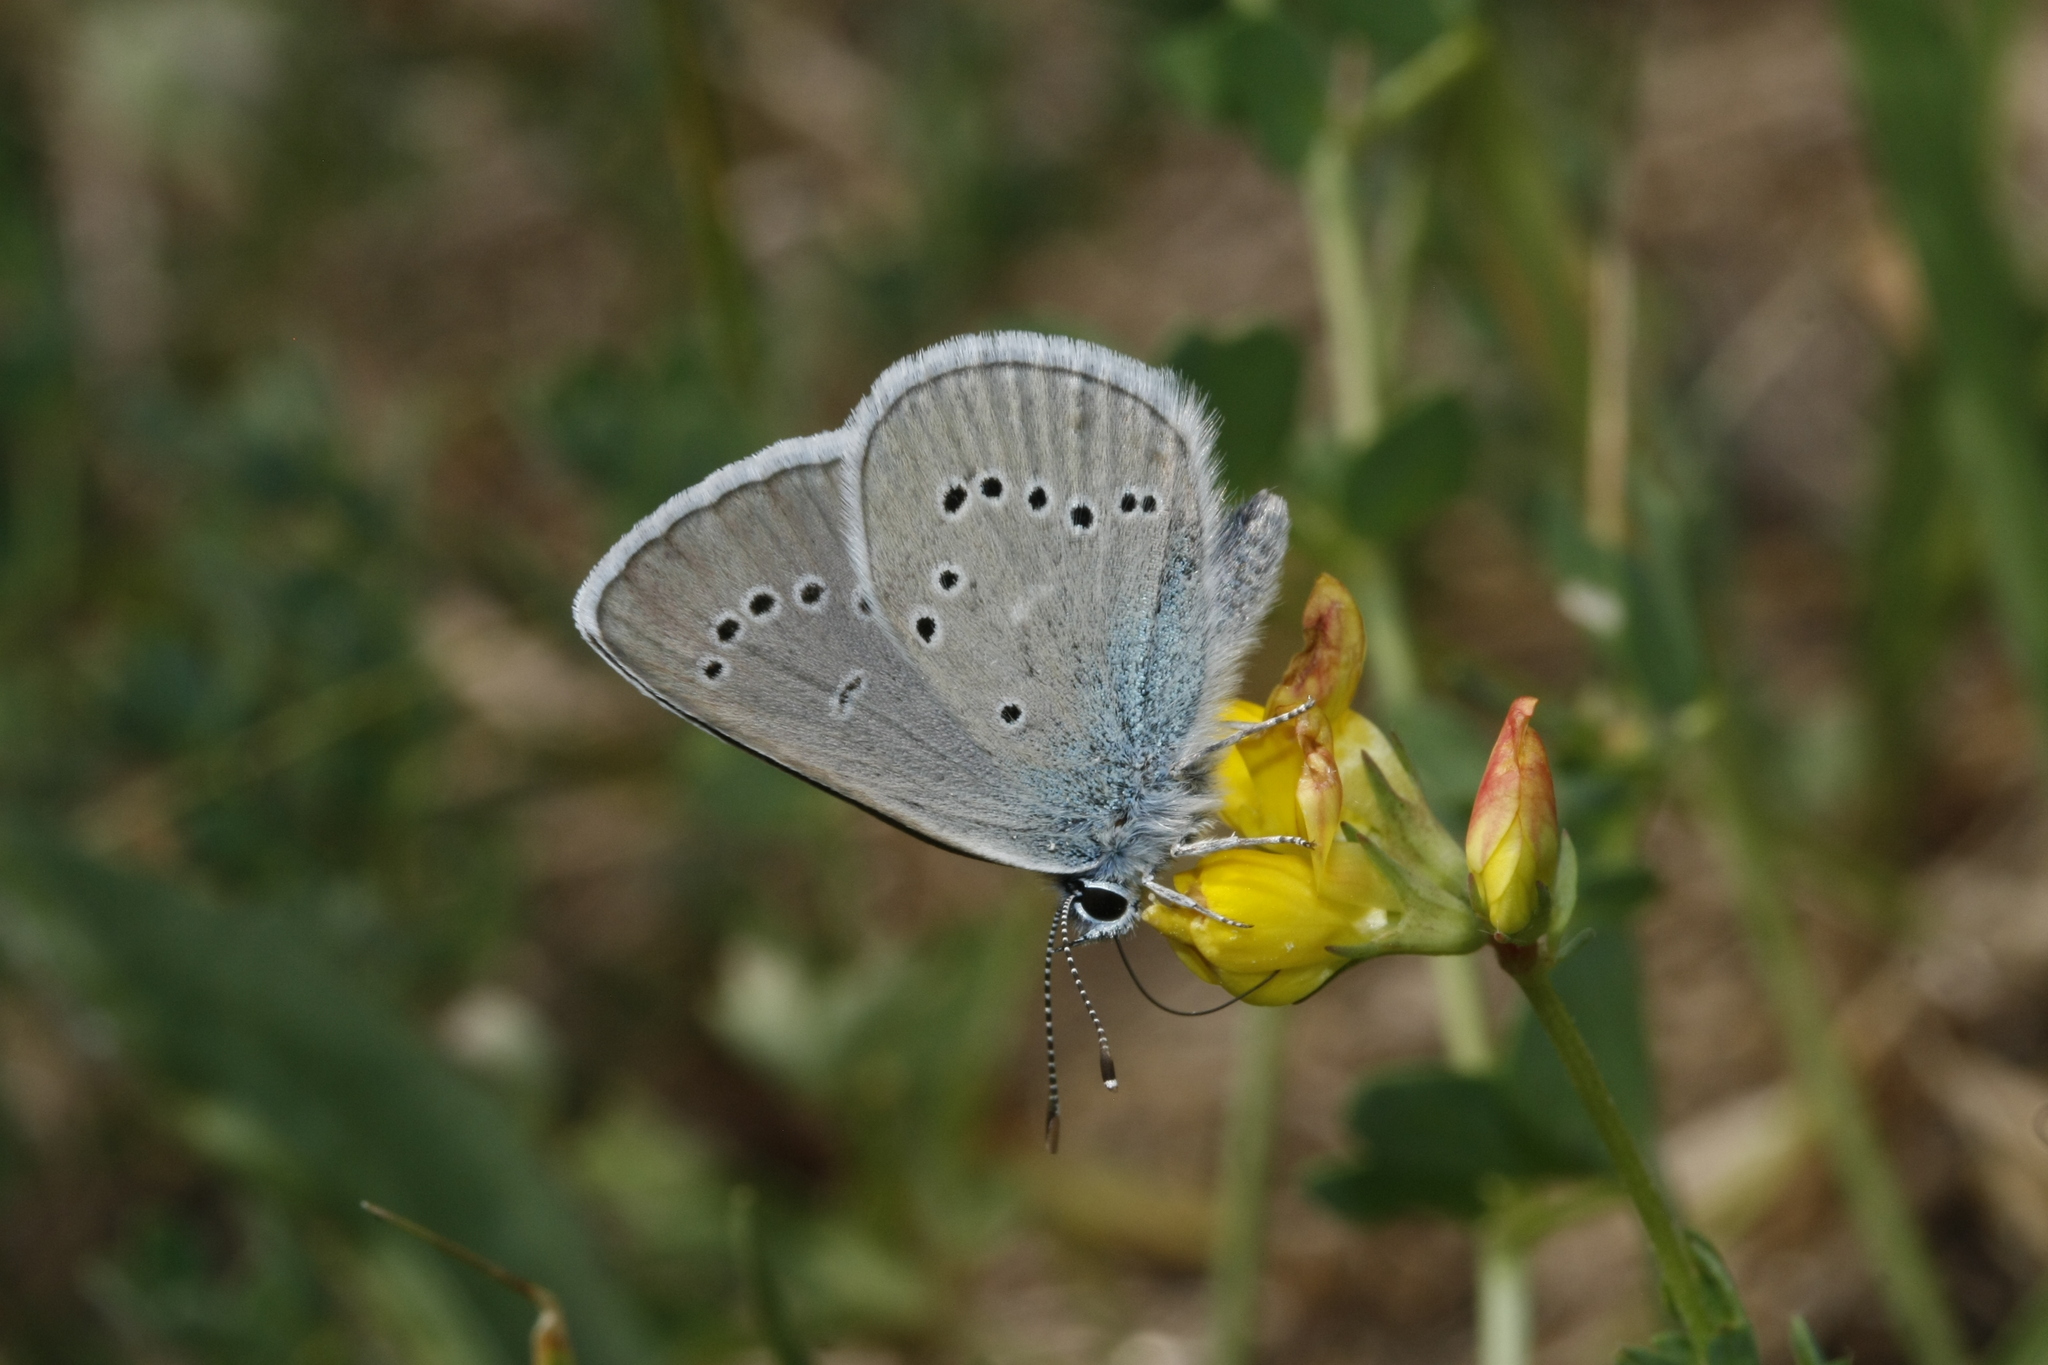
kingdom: Animalia
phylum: Arthropoda
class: Insecta
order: Lepidoptera
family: Lycaenidae
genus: Cyaniris
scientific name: Cyaniris semiargus
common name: Mazarine blue
